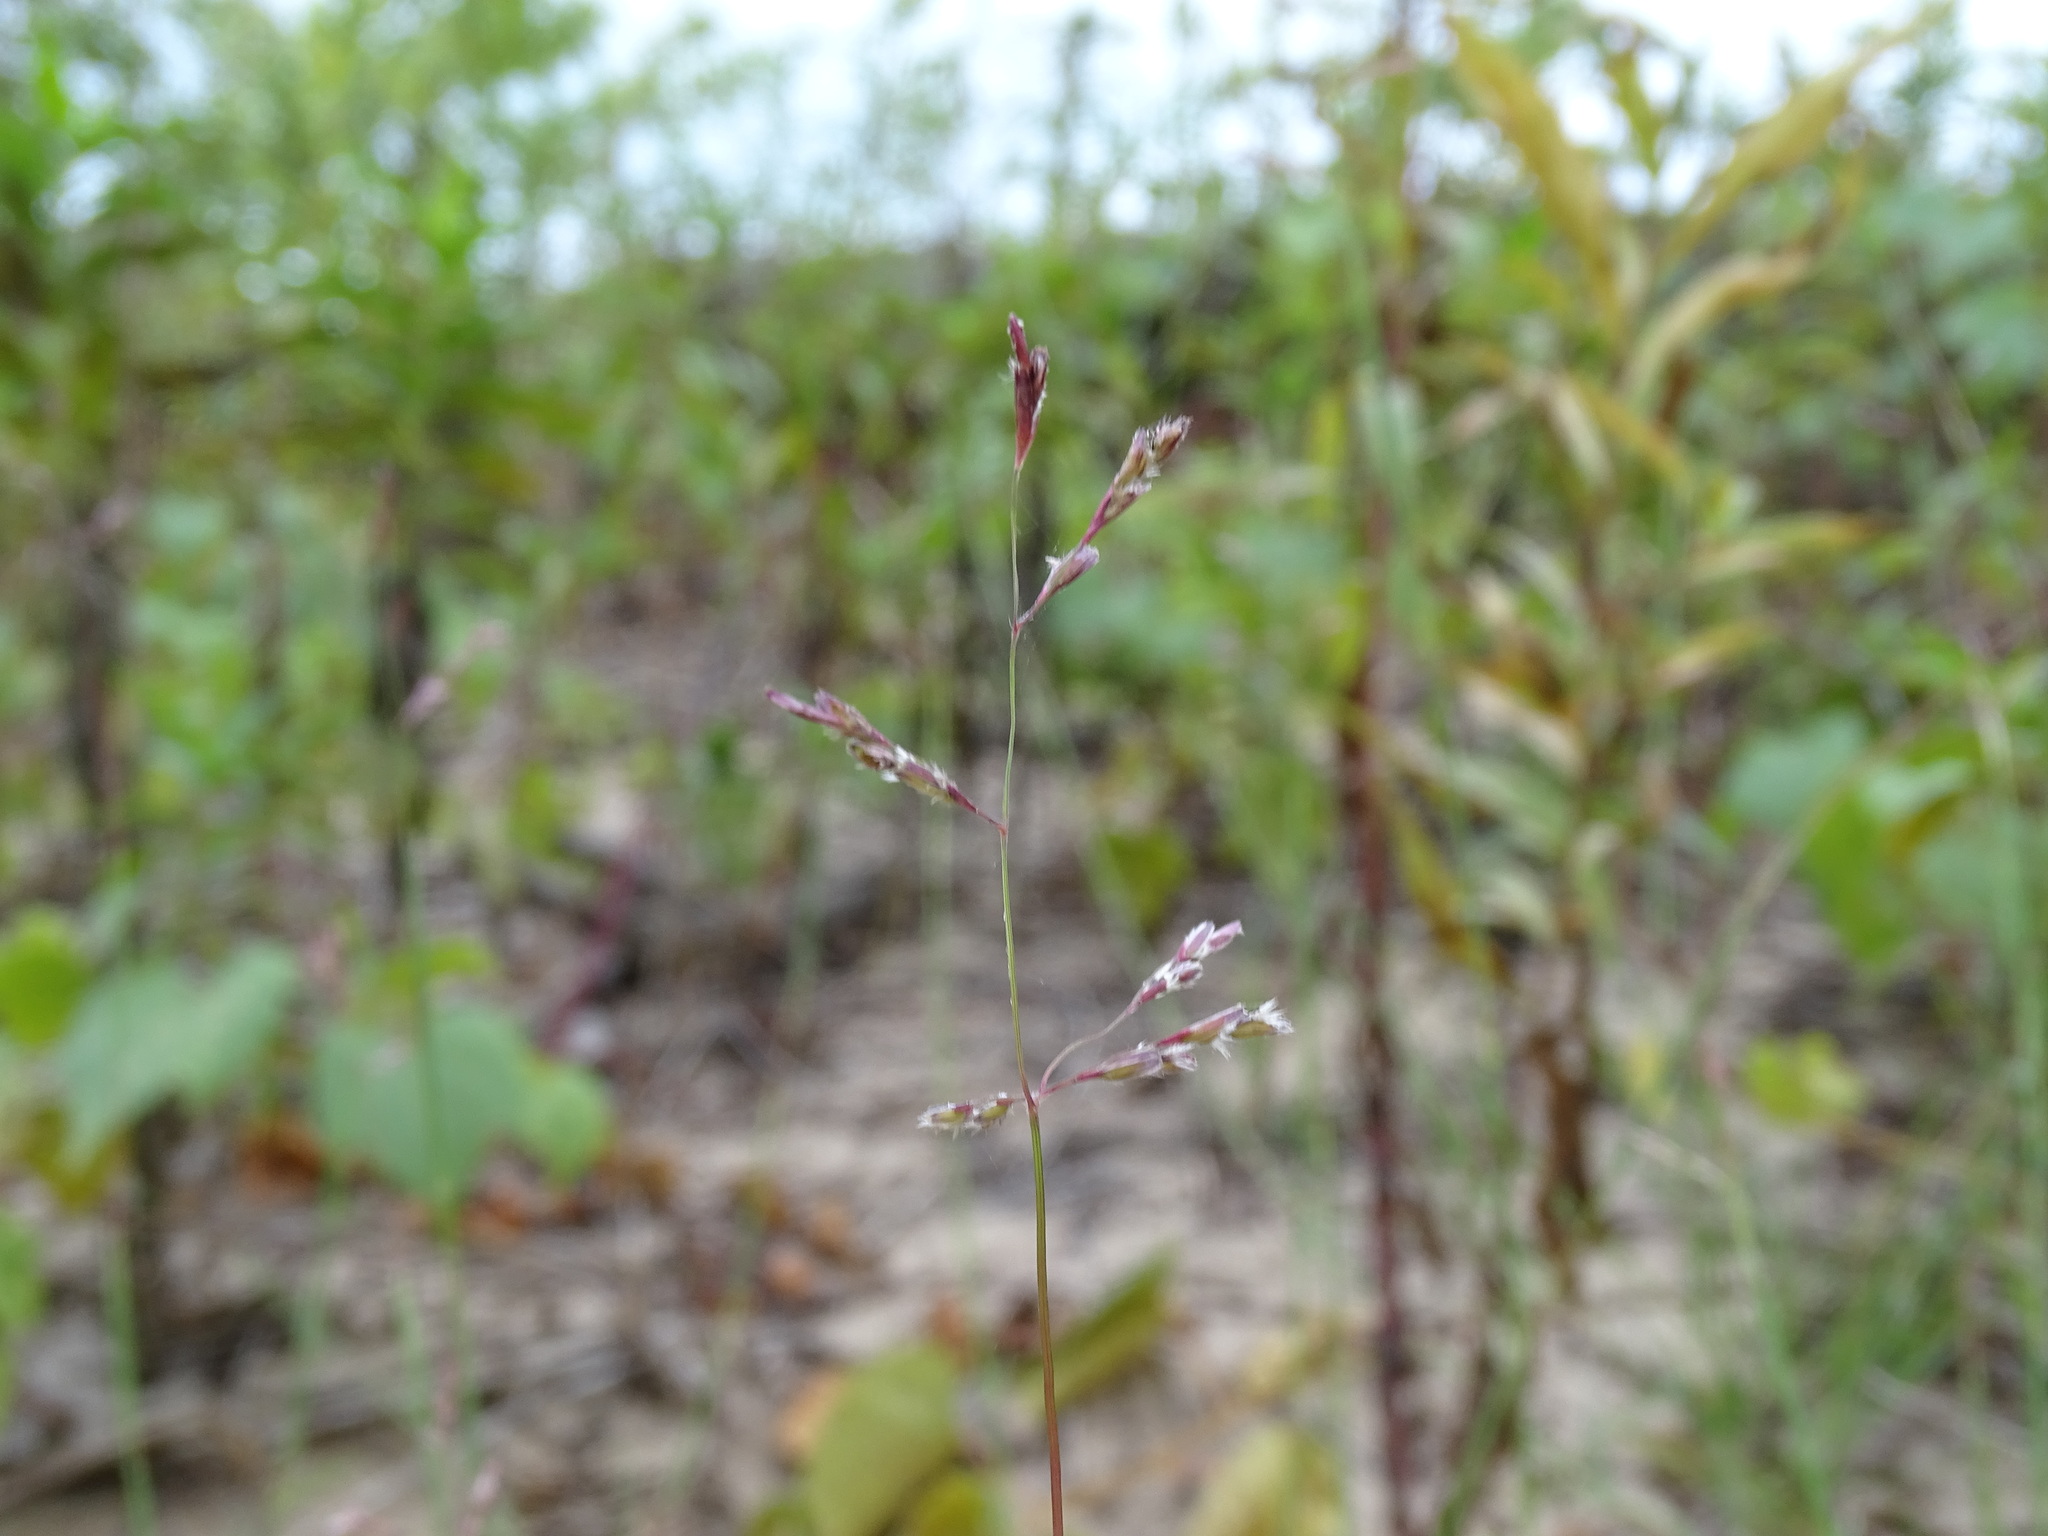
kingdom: Plantae
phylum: Tracheophyta
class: Liliopsida
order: Poales
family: Poaceae
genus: Triplasis
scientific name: Triplasis purpurea
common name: Purple sand grass
